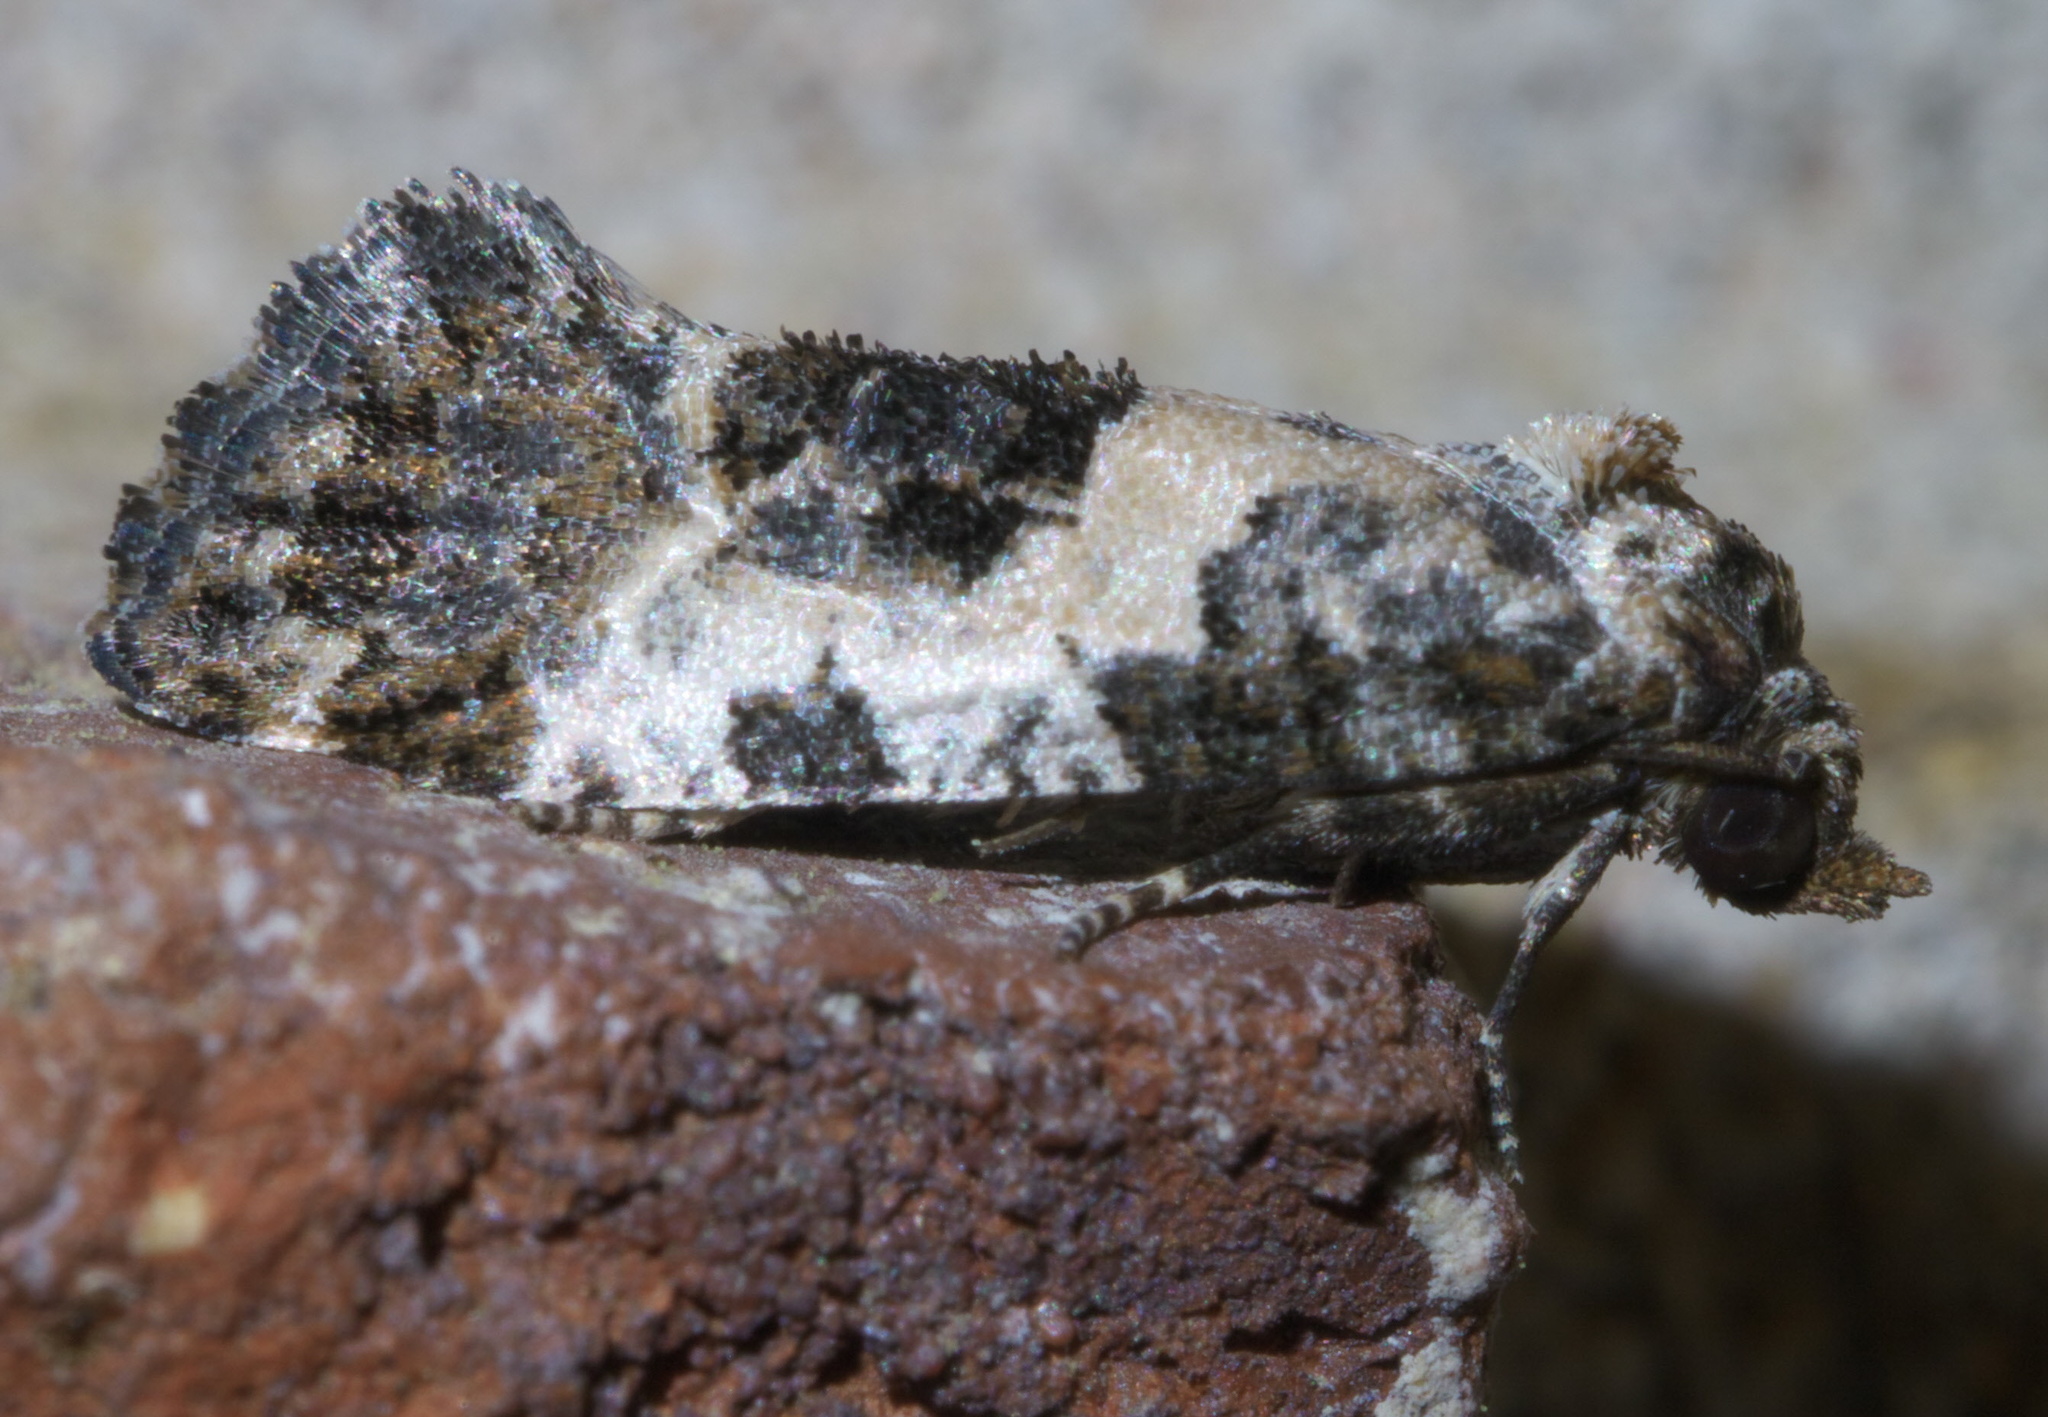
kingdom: Animalia
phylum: Arthropoda
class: Insecta
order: Lepidoptera
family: Tortricidae
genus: Rudenia
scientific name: Rudenia leguminana
